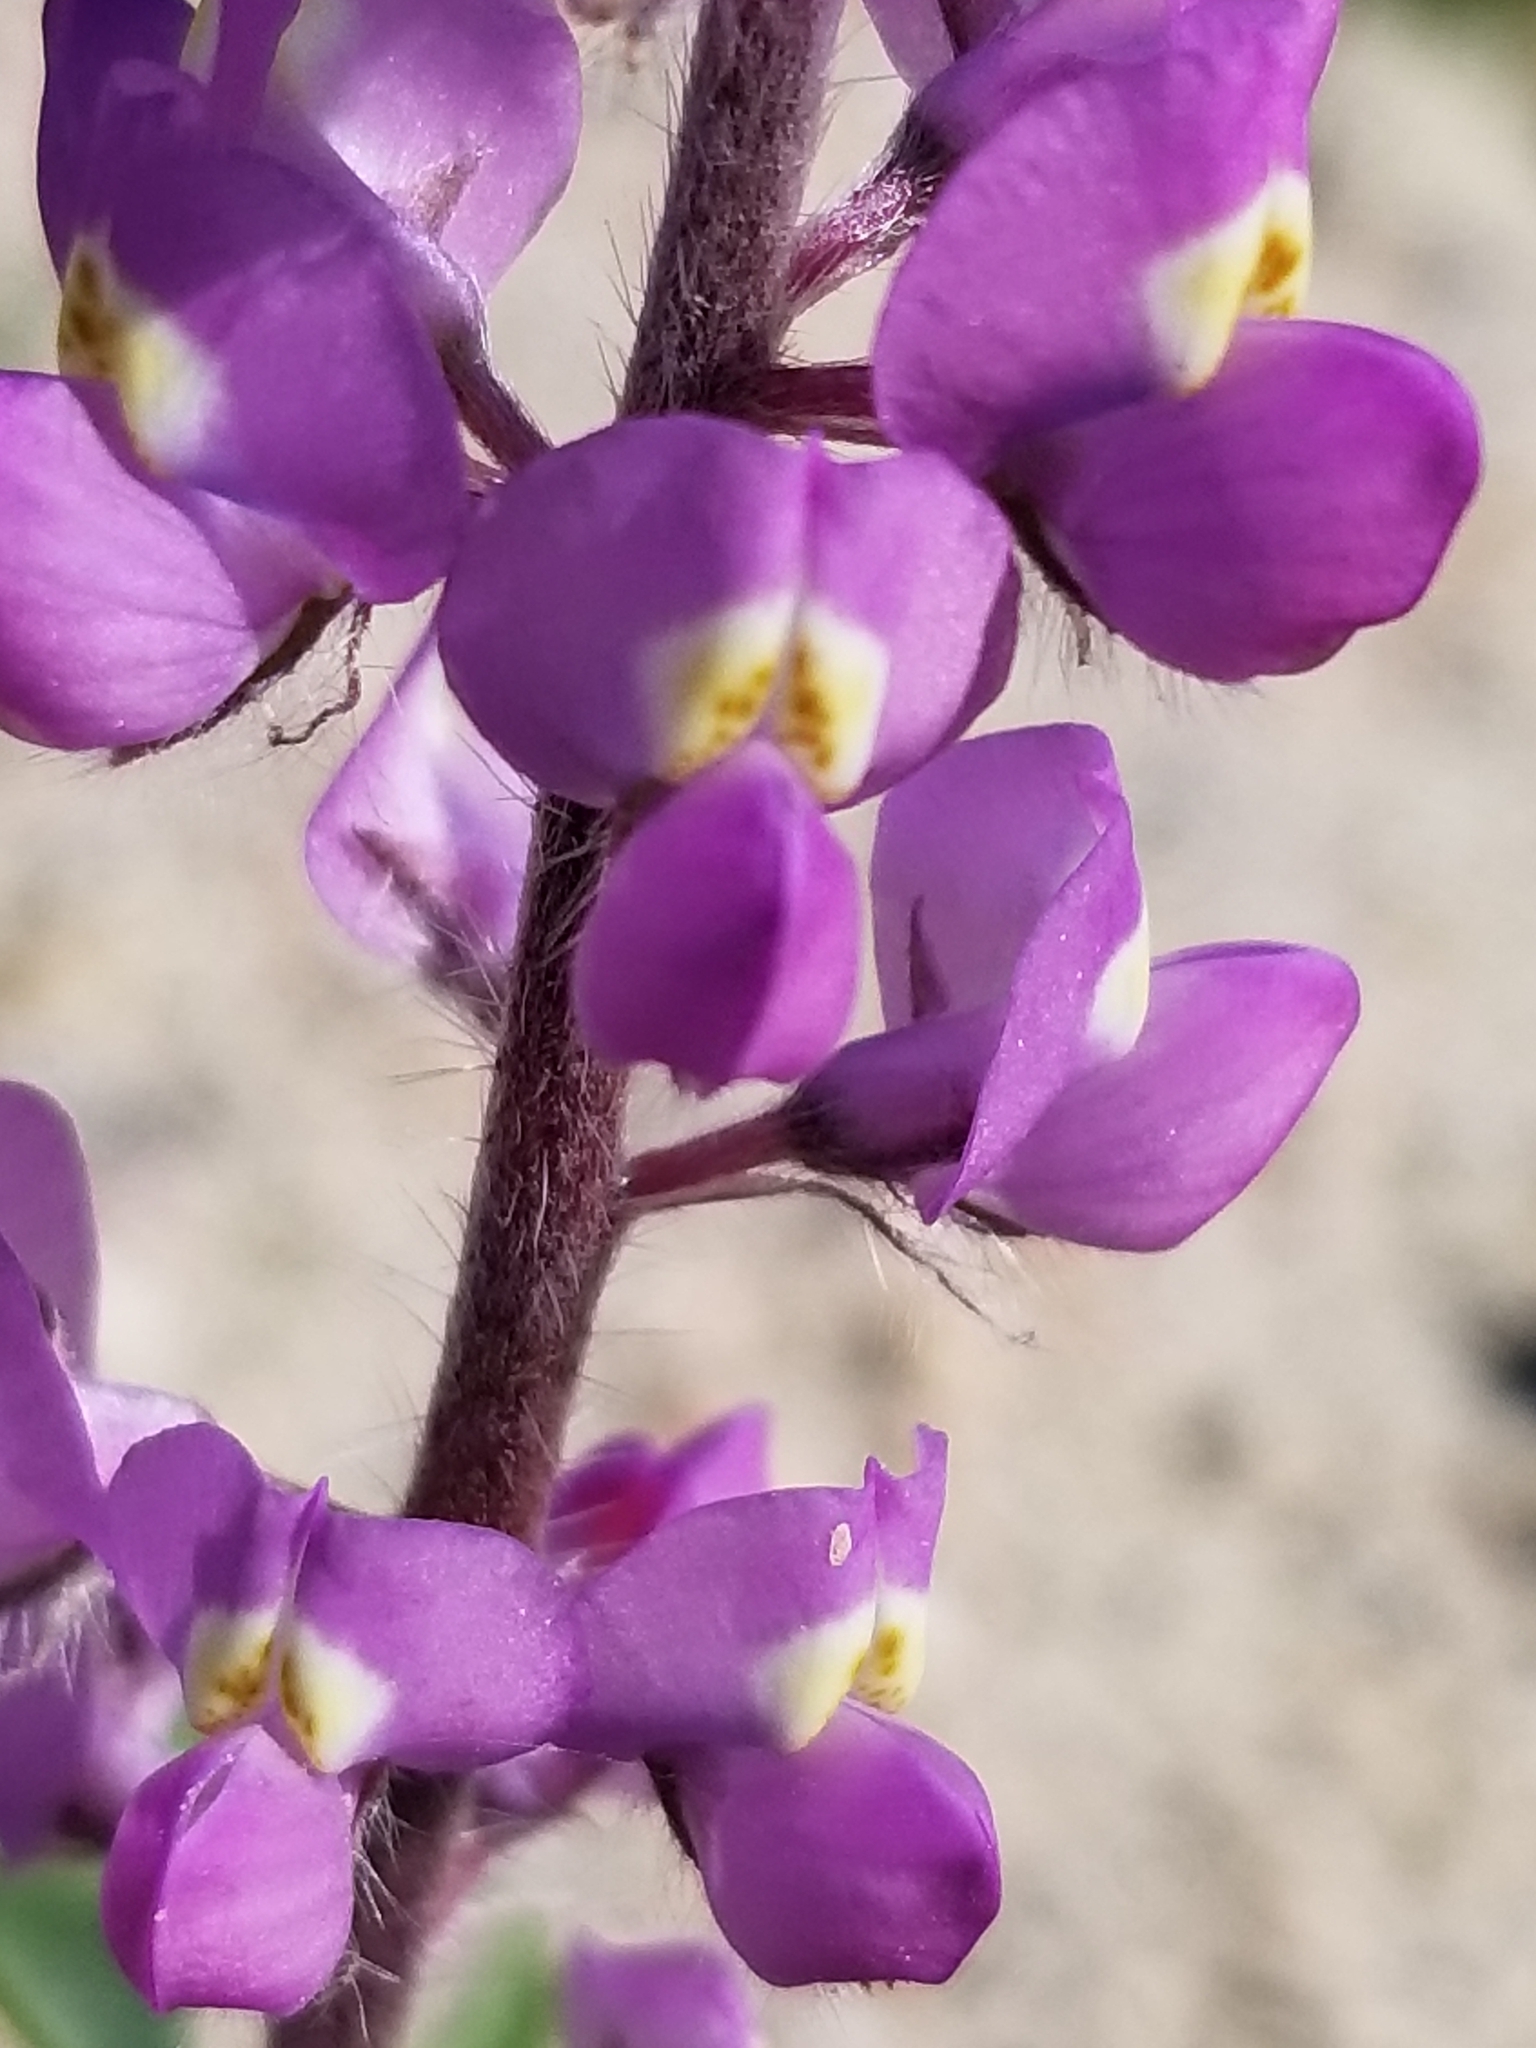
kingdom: Plantae
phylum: Tracheophyta
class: Magnoliopsida
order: Fabales
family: Fabaceae
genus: Lupinus
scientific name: Lupinus arizonicus
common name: Arizona lupine
